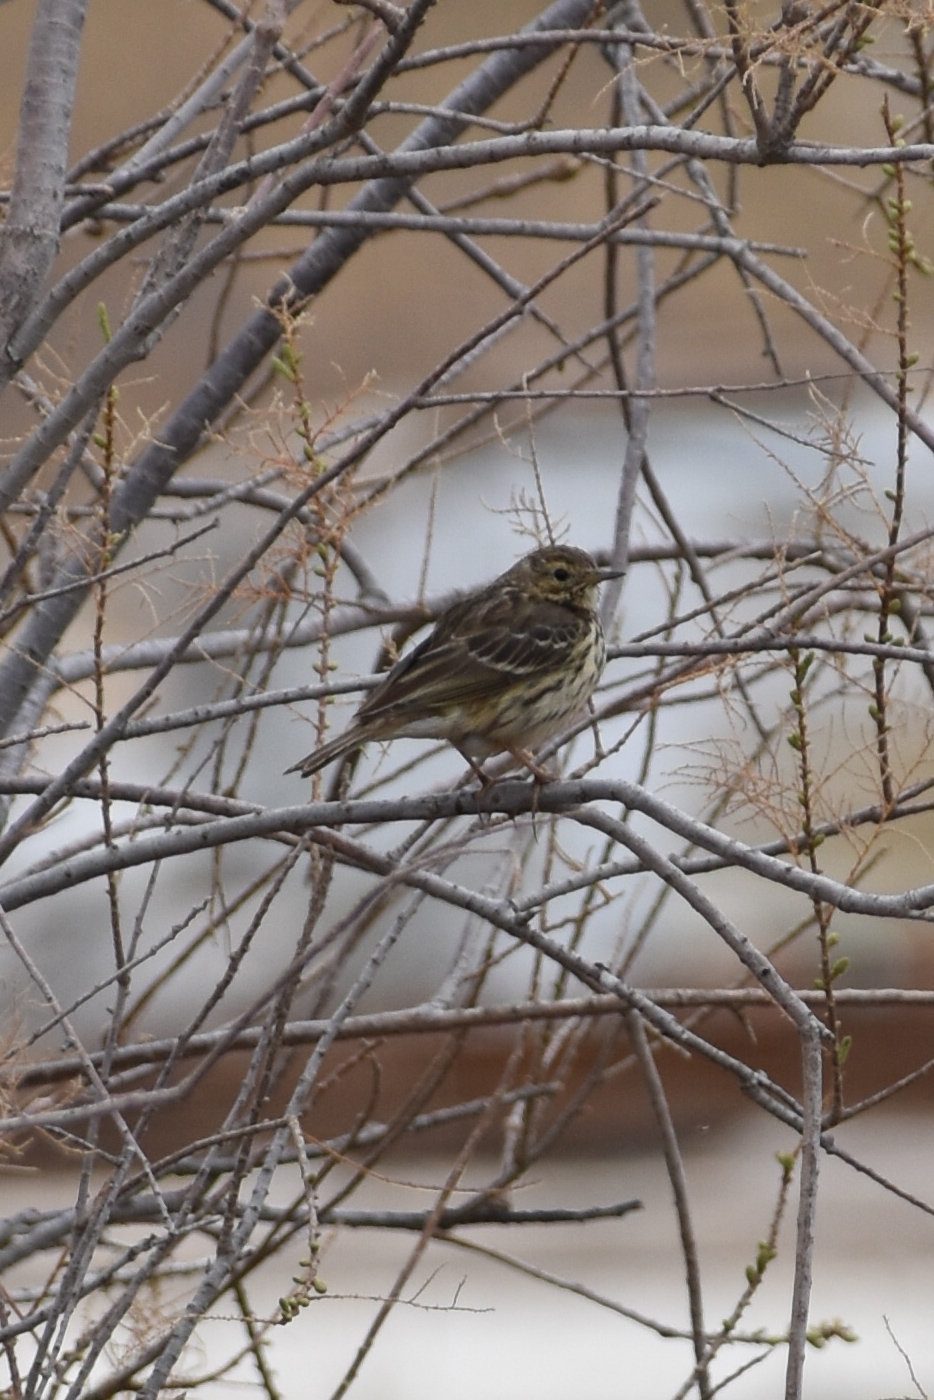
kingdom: Animalia
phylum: Chordata
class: Aves
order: Passeriformes
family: Motacillidae
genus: Anthus
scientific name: Anthus pratensis
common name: Meadow pipit
